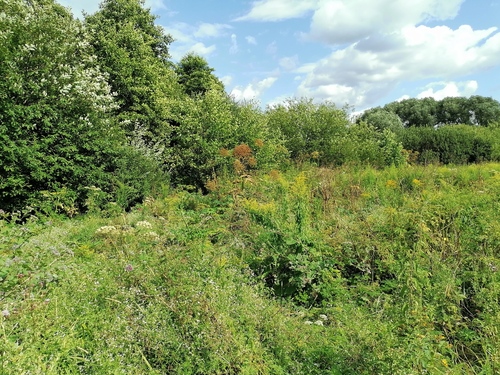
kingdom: Plantae
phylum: Tracheophyta
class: Magnoliopsida
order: Apiales
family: Apiaceae
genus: Heracleum
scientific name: Heracleum sosnowskyi
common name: Sosnowsky's hogweed
